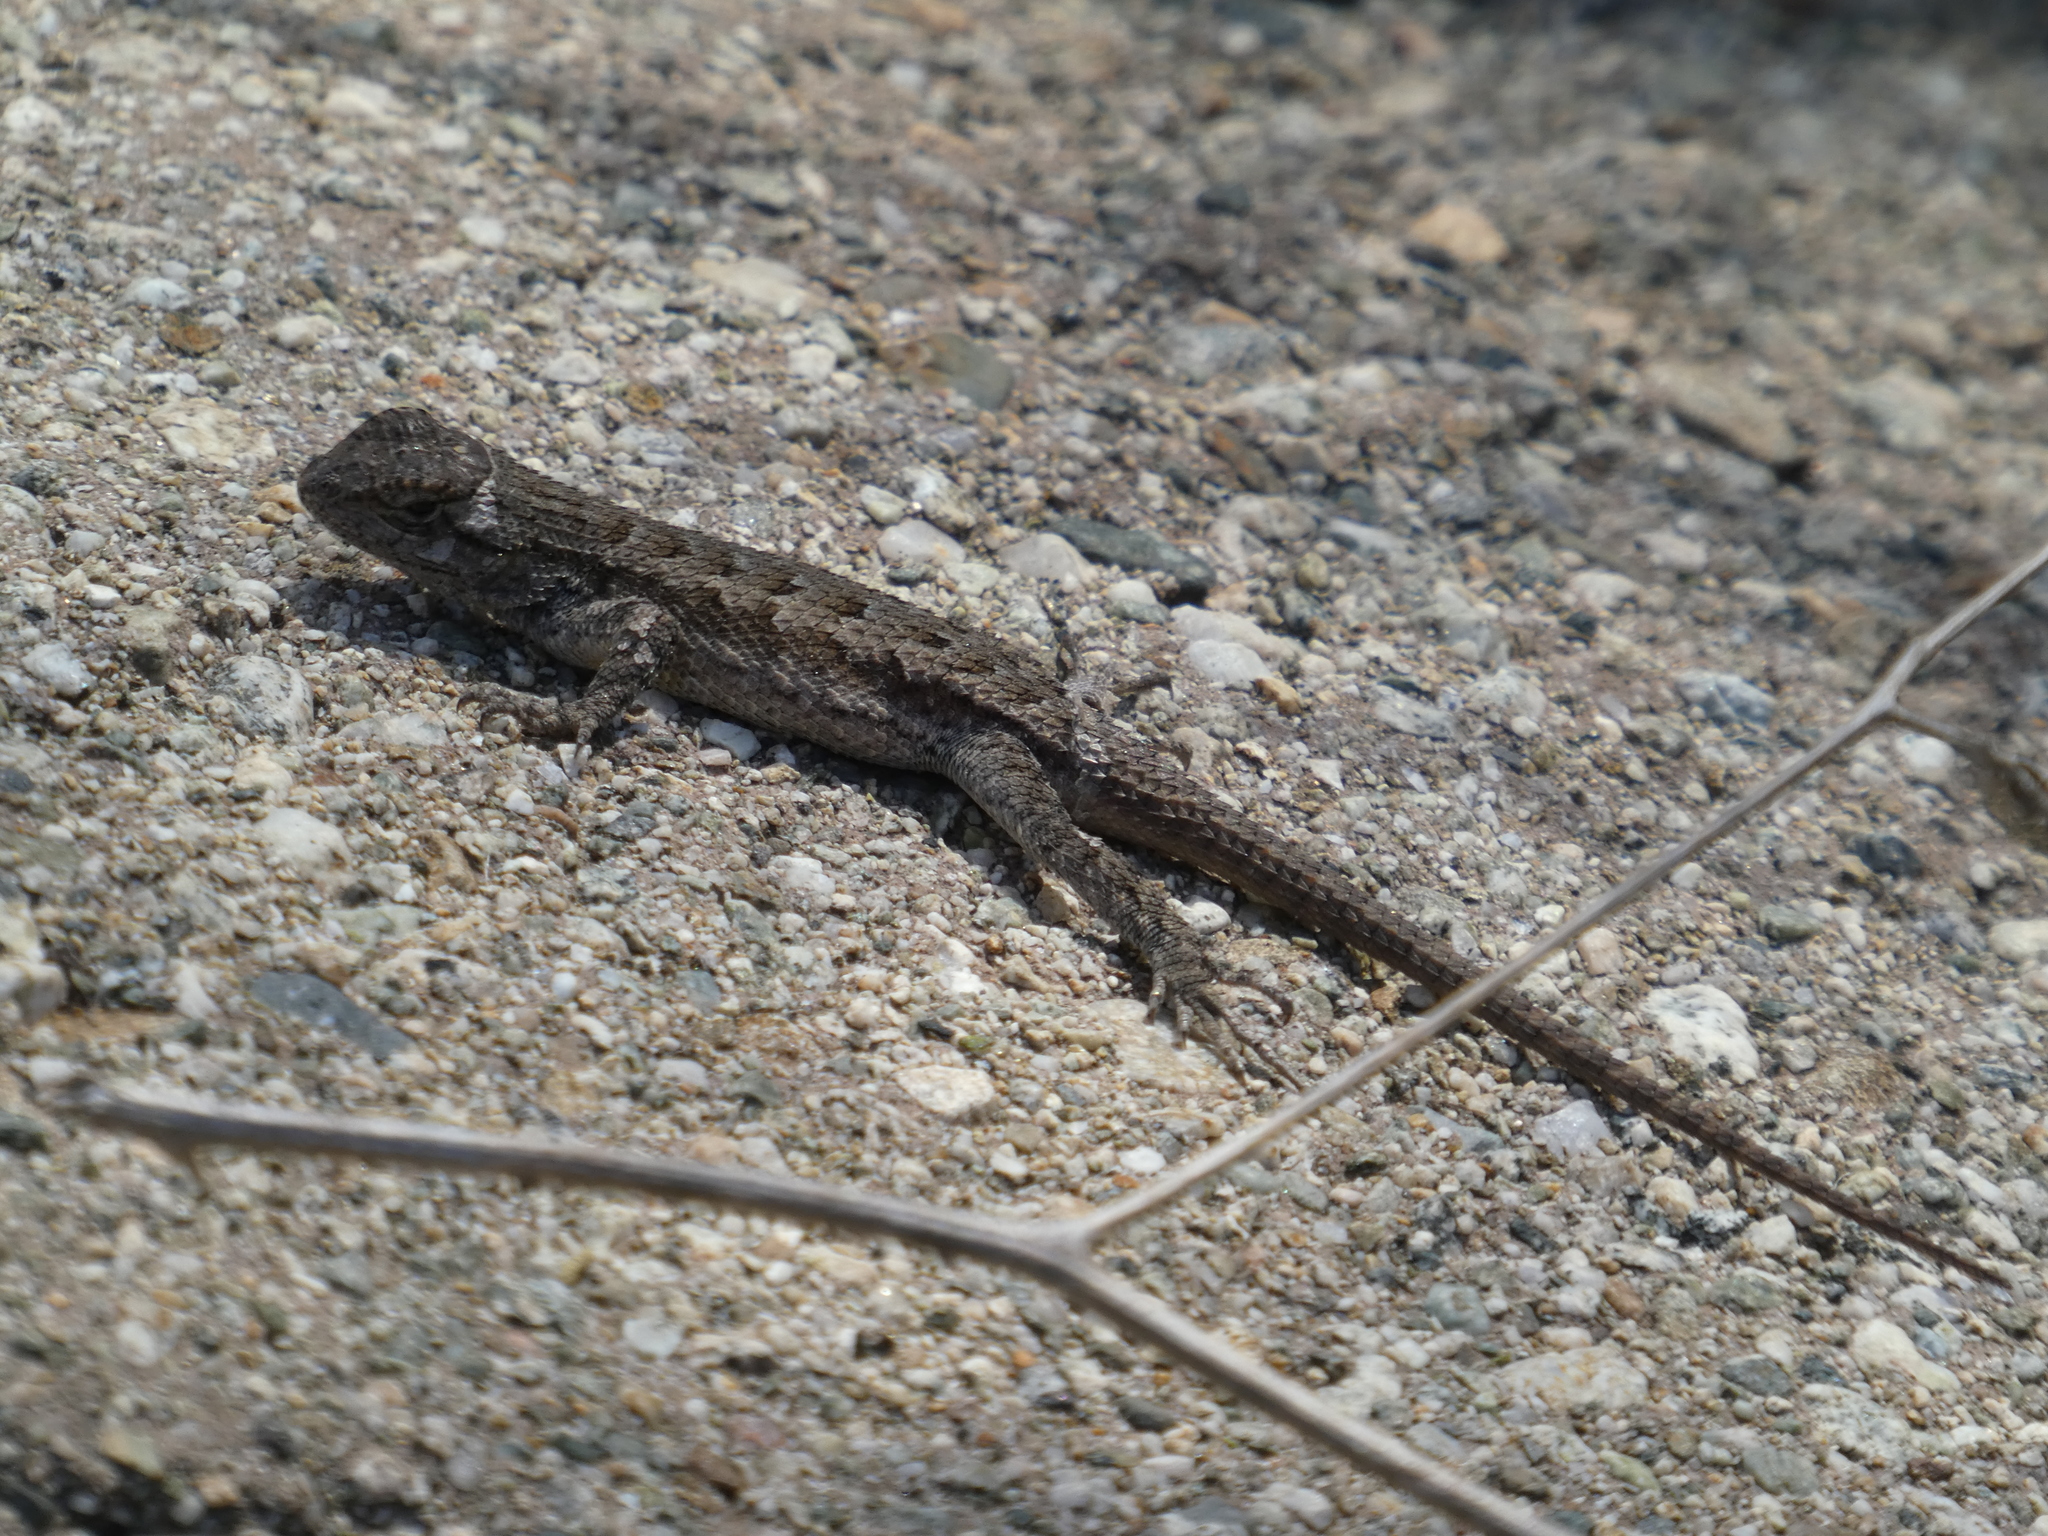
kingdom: Animalia
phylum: Chordata
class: Squamata
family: Phrynosomatidae
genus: Sceloporus
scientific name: Sceloporus occidentalis
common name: Western fence lizard
